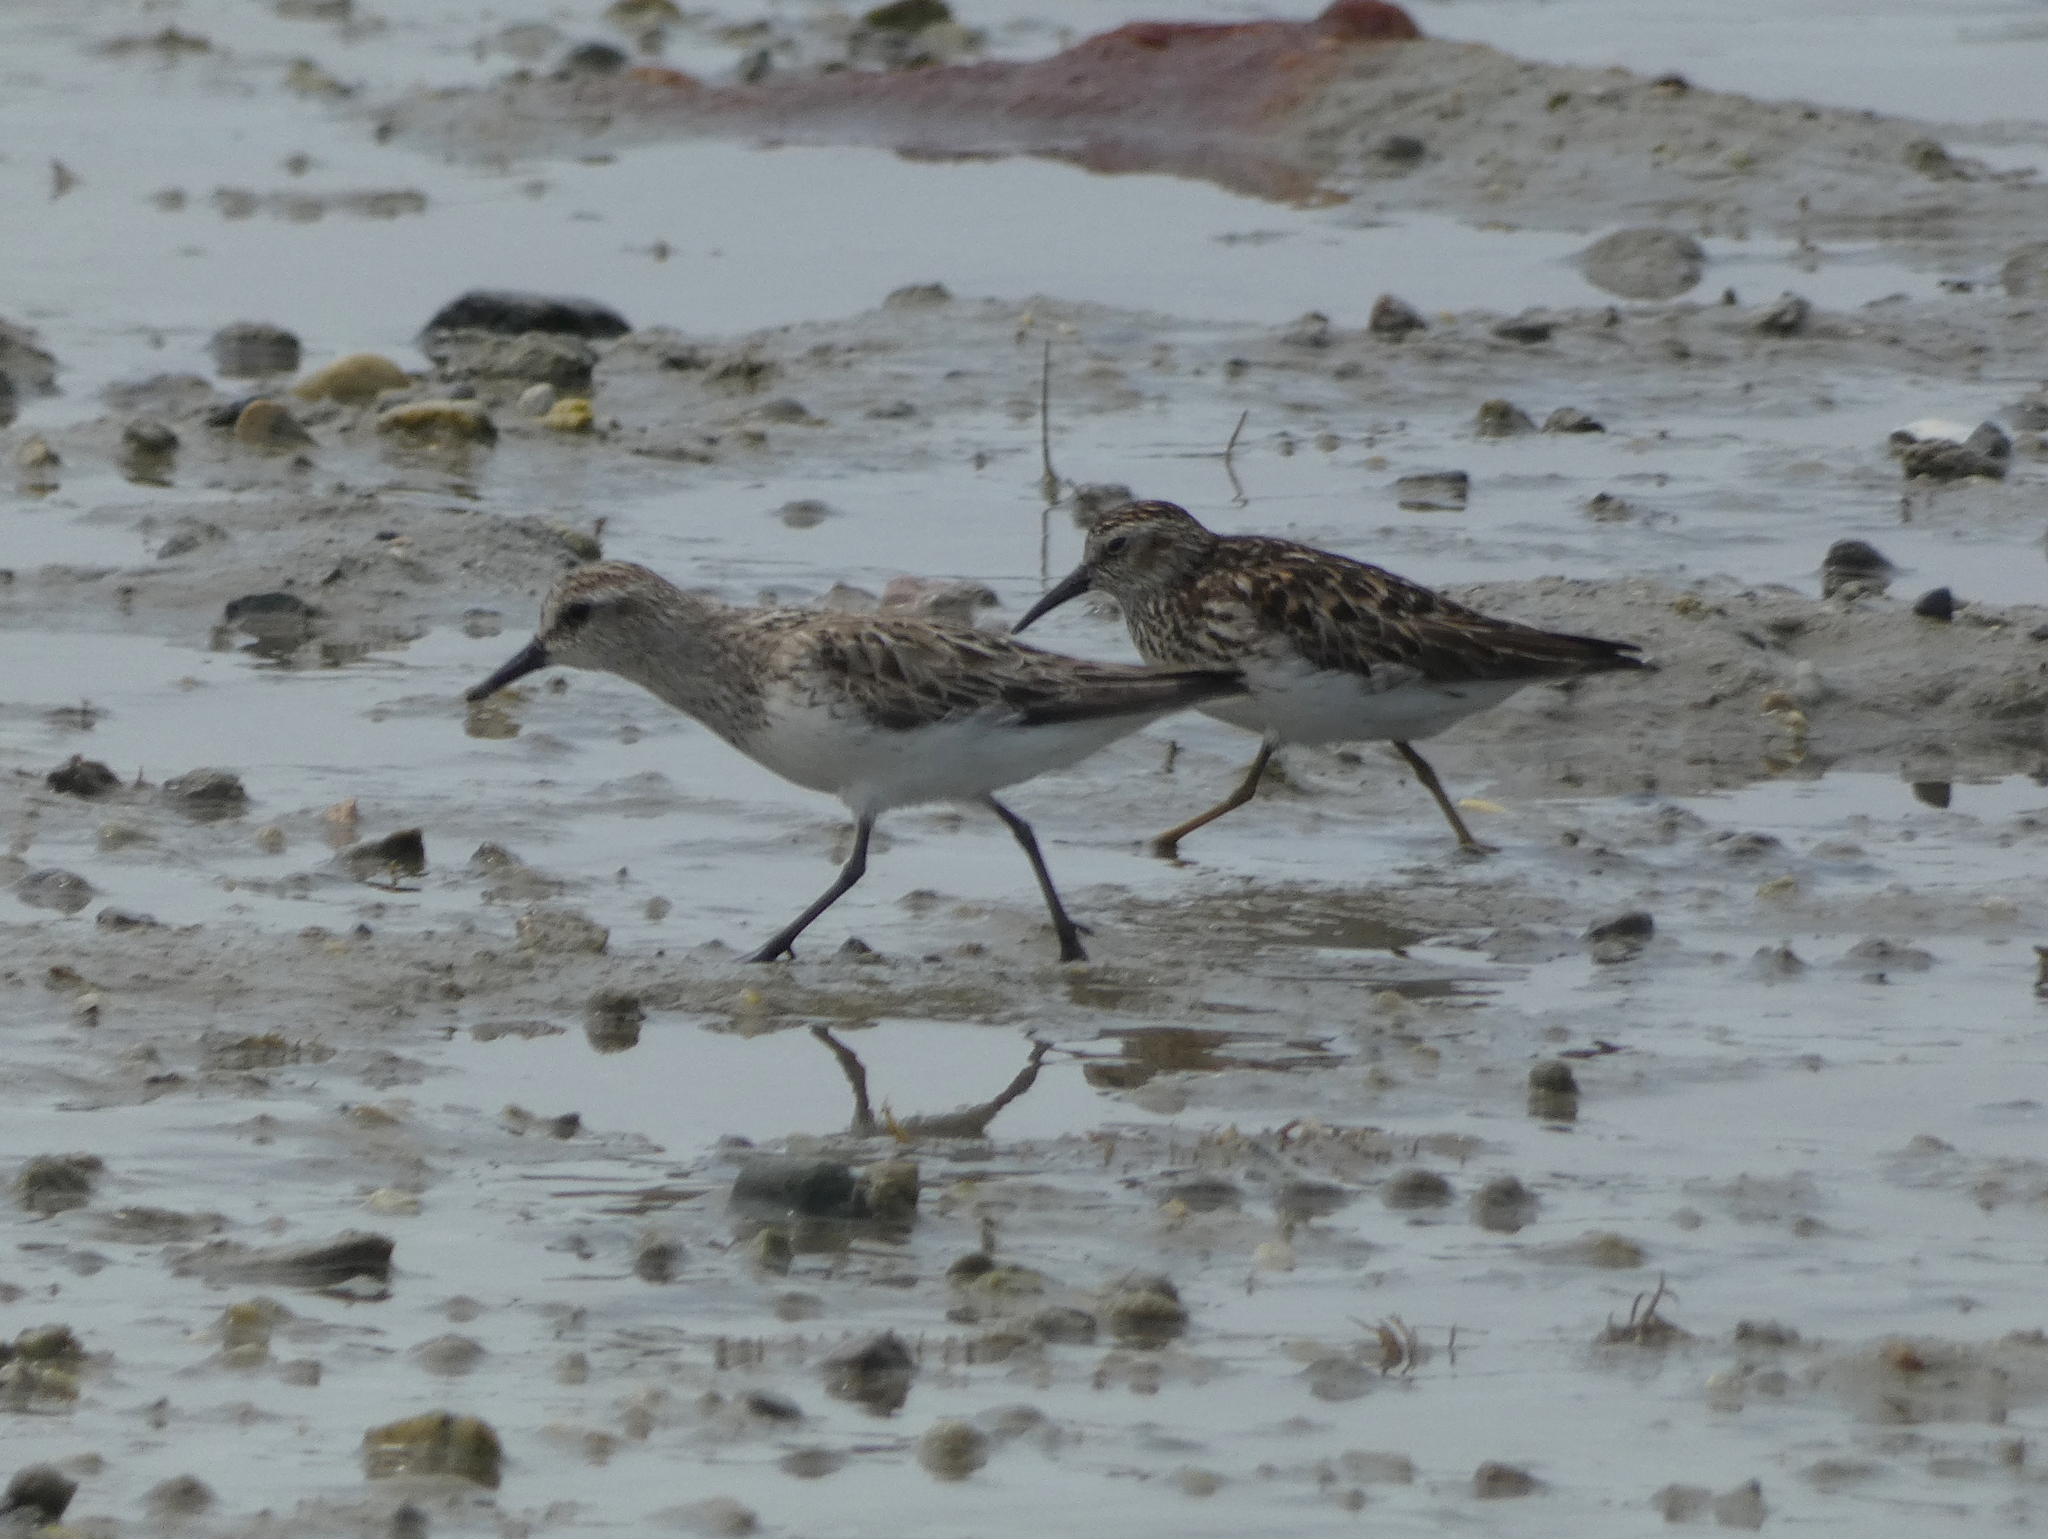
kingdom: Animalia
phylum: Chordata
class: Aves
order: Charadriiformes
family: Scolopacidae
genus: Calidris
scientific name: Calidris pusilla
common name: Semipalmated sandpiper
